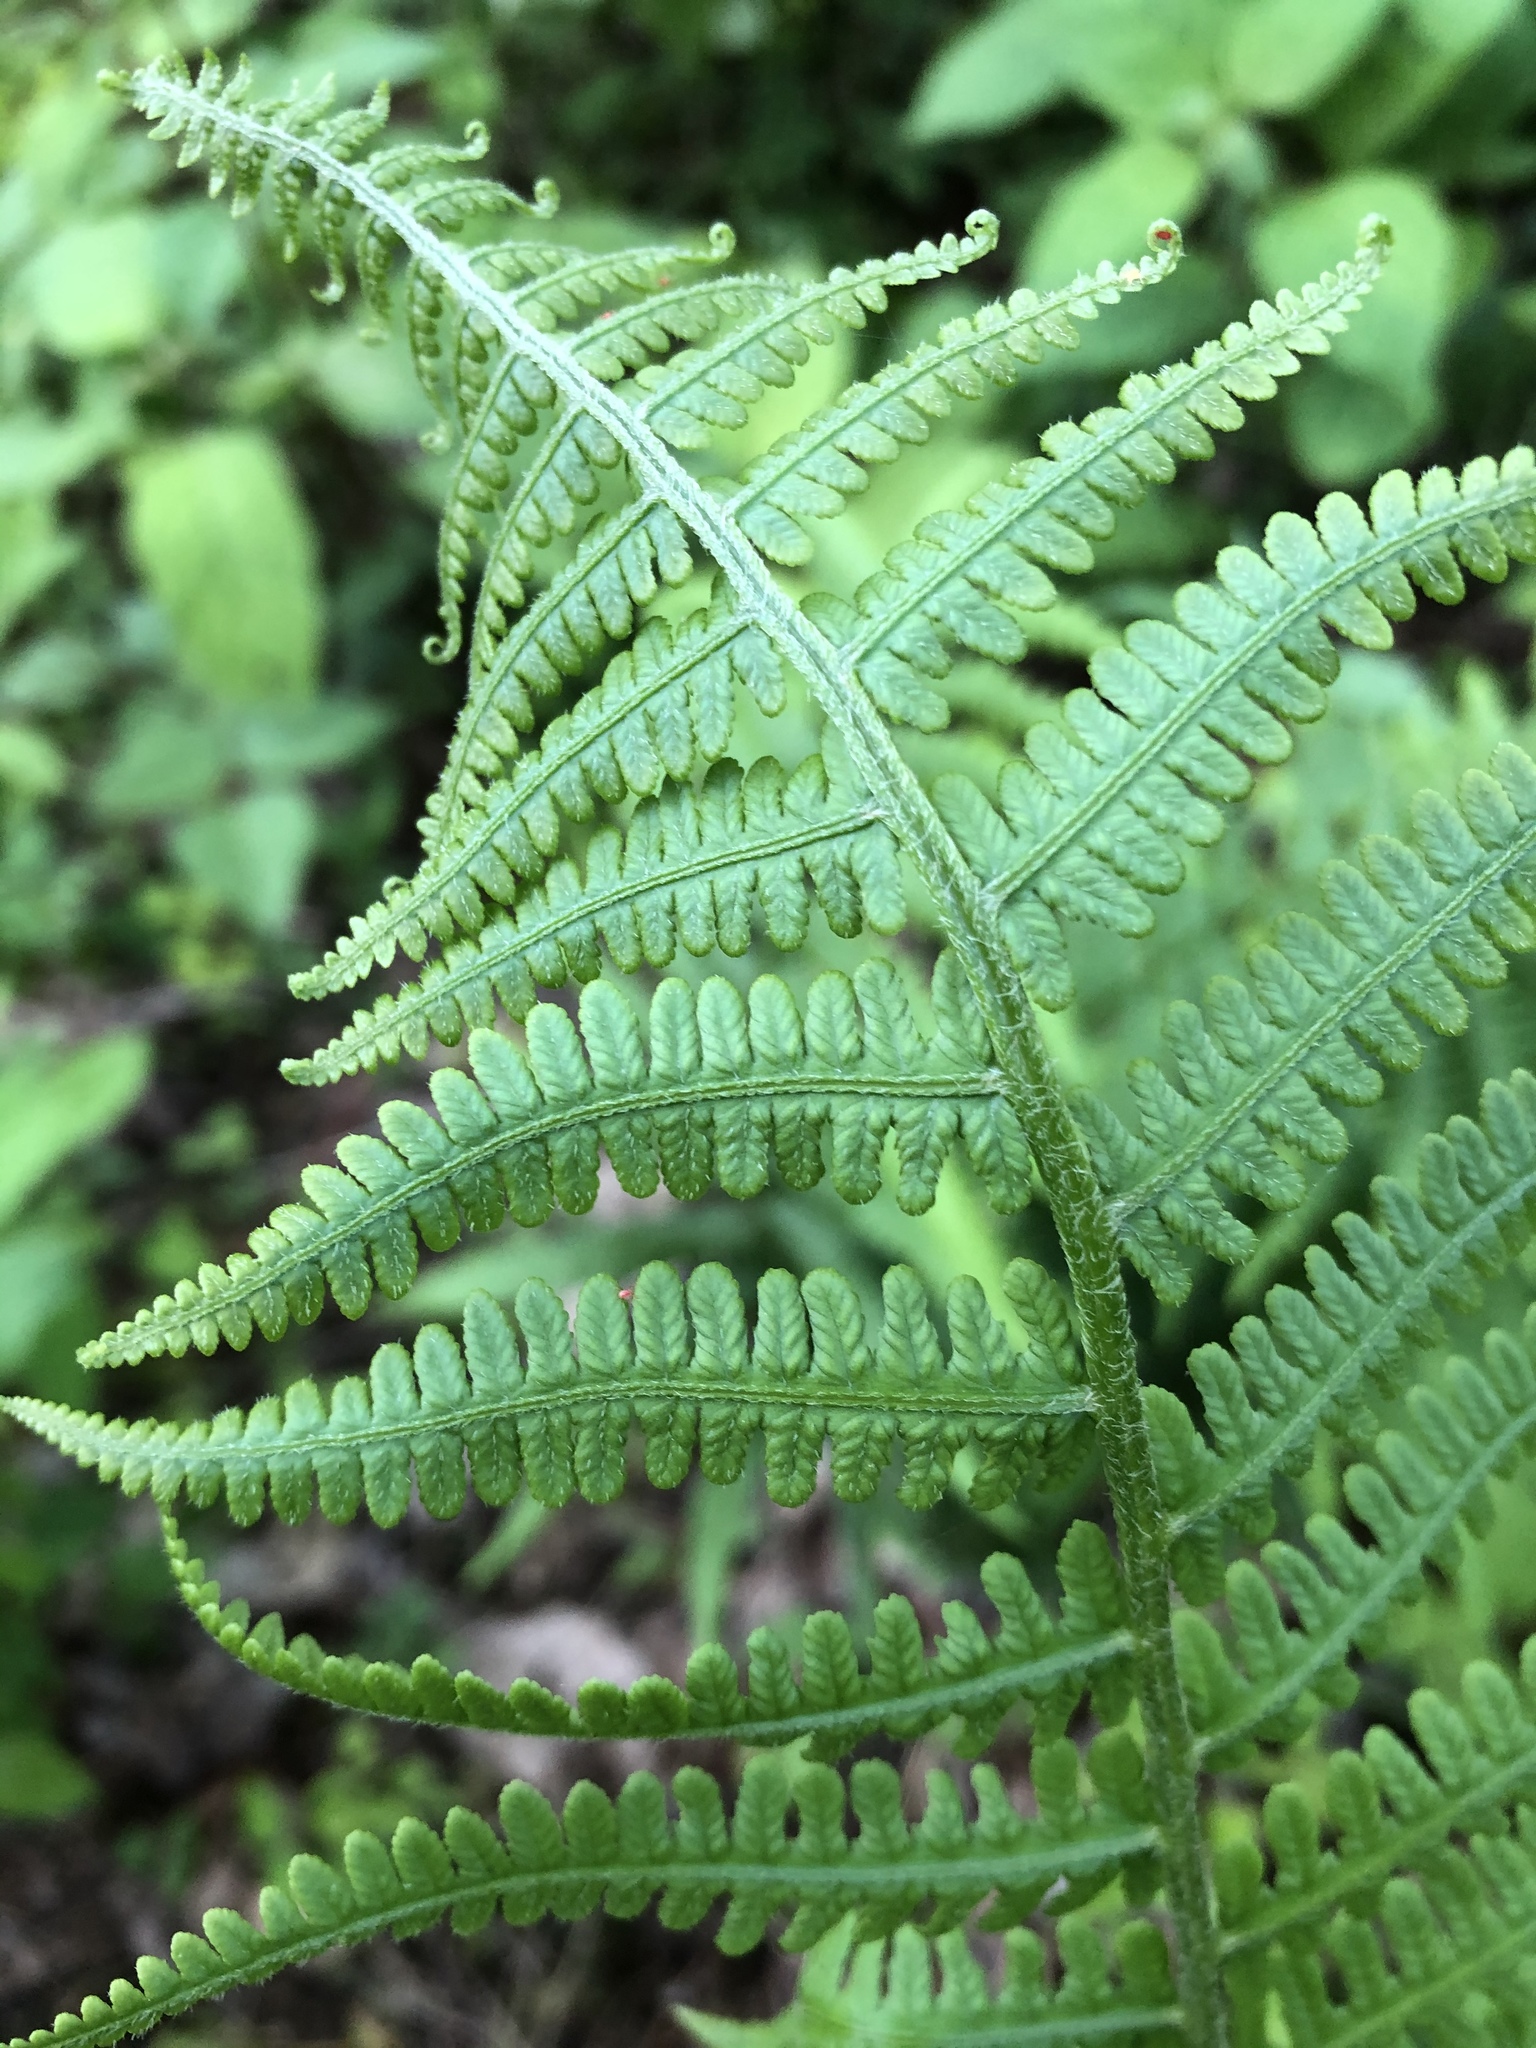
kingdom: Plantae
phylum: Tracheophyta
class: Polypodiopsida
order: Polypodiales
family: Athyriaceae
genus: Deparia
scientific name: Deparia acrostichoides
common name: Silver false spleenwort
